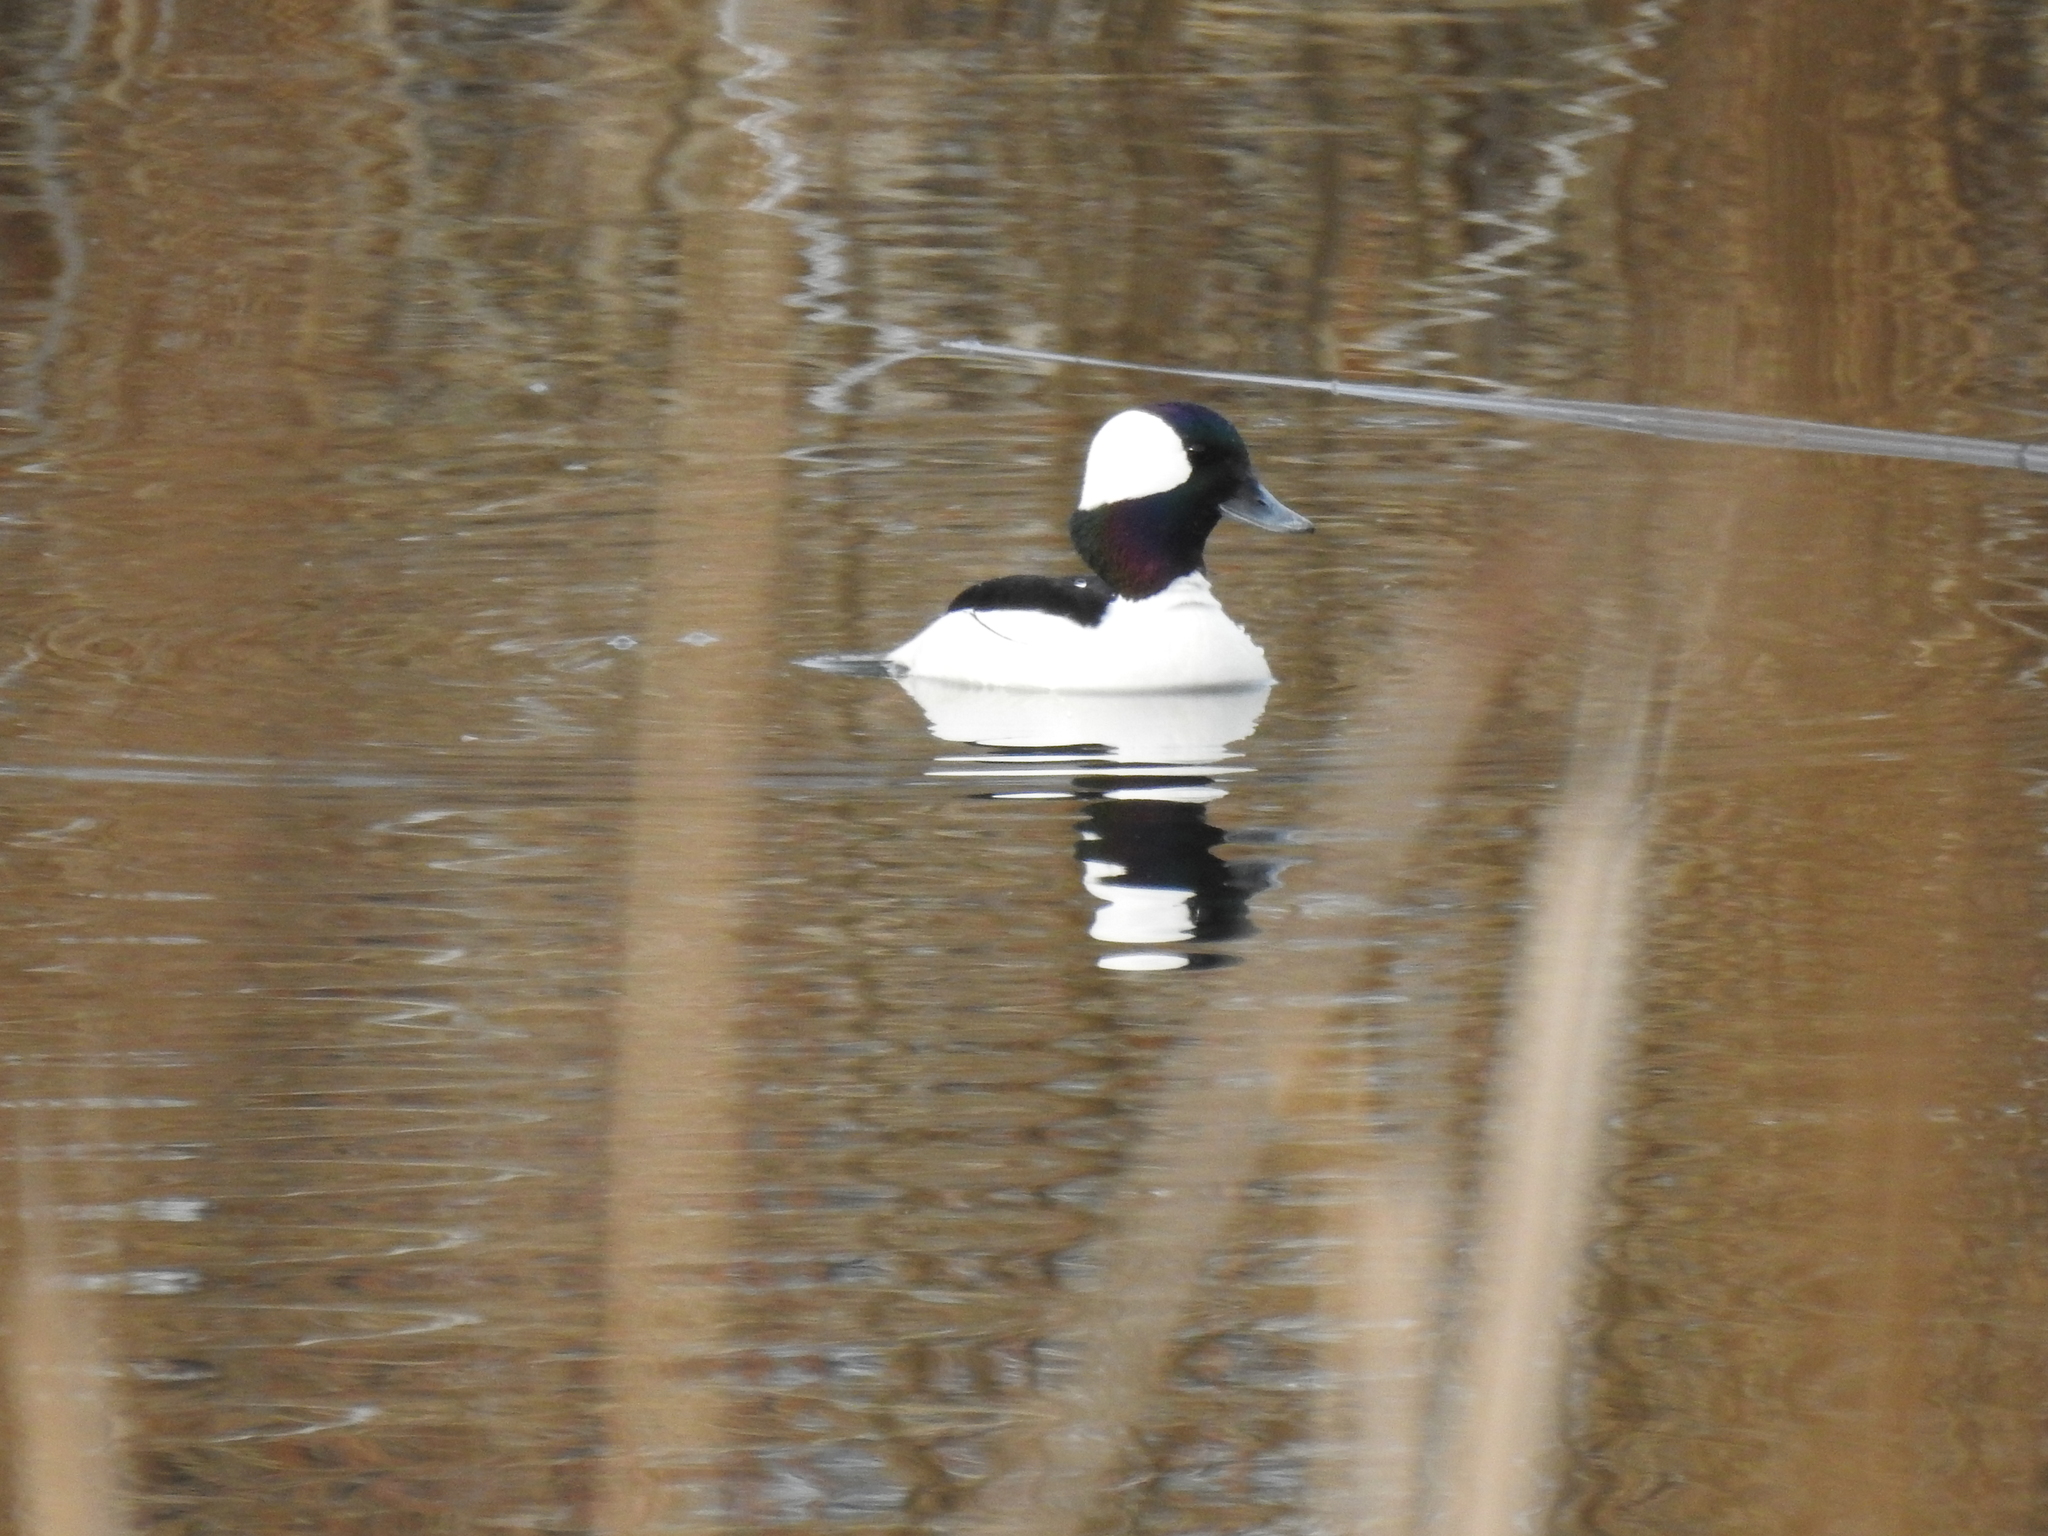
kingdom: Animalia
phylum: Chordata
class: Aves
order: Anseriformes
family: Anatidae
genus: Bucephala
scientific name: Bucephala albeola
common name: Bufflehead
